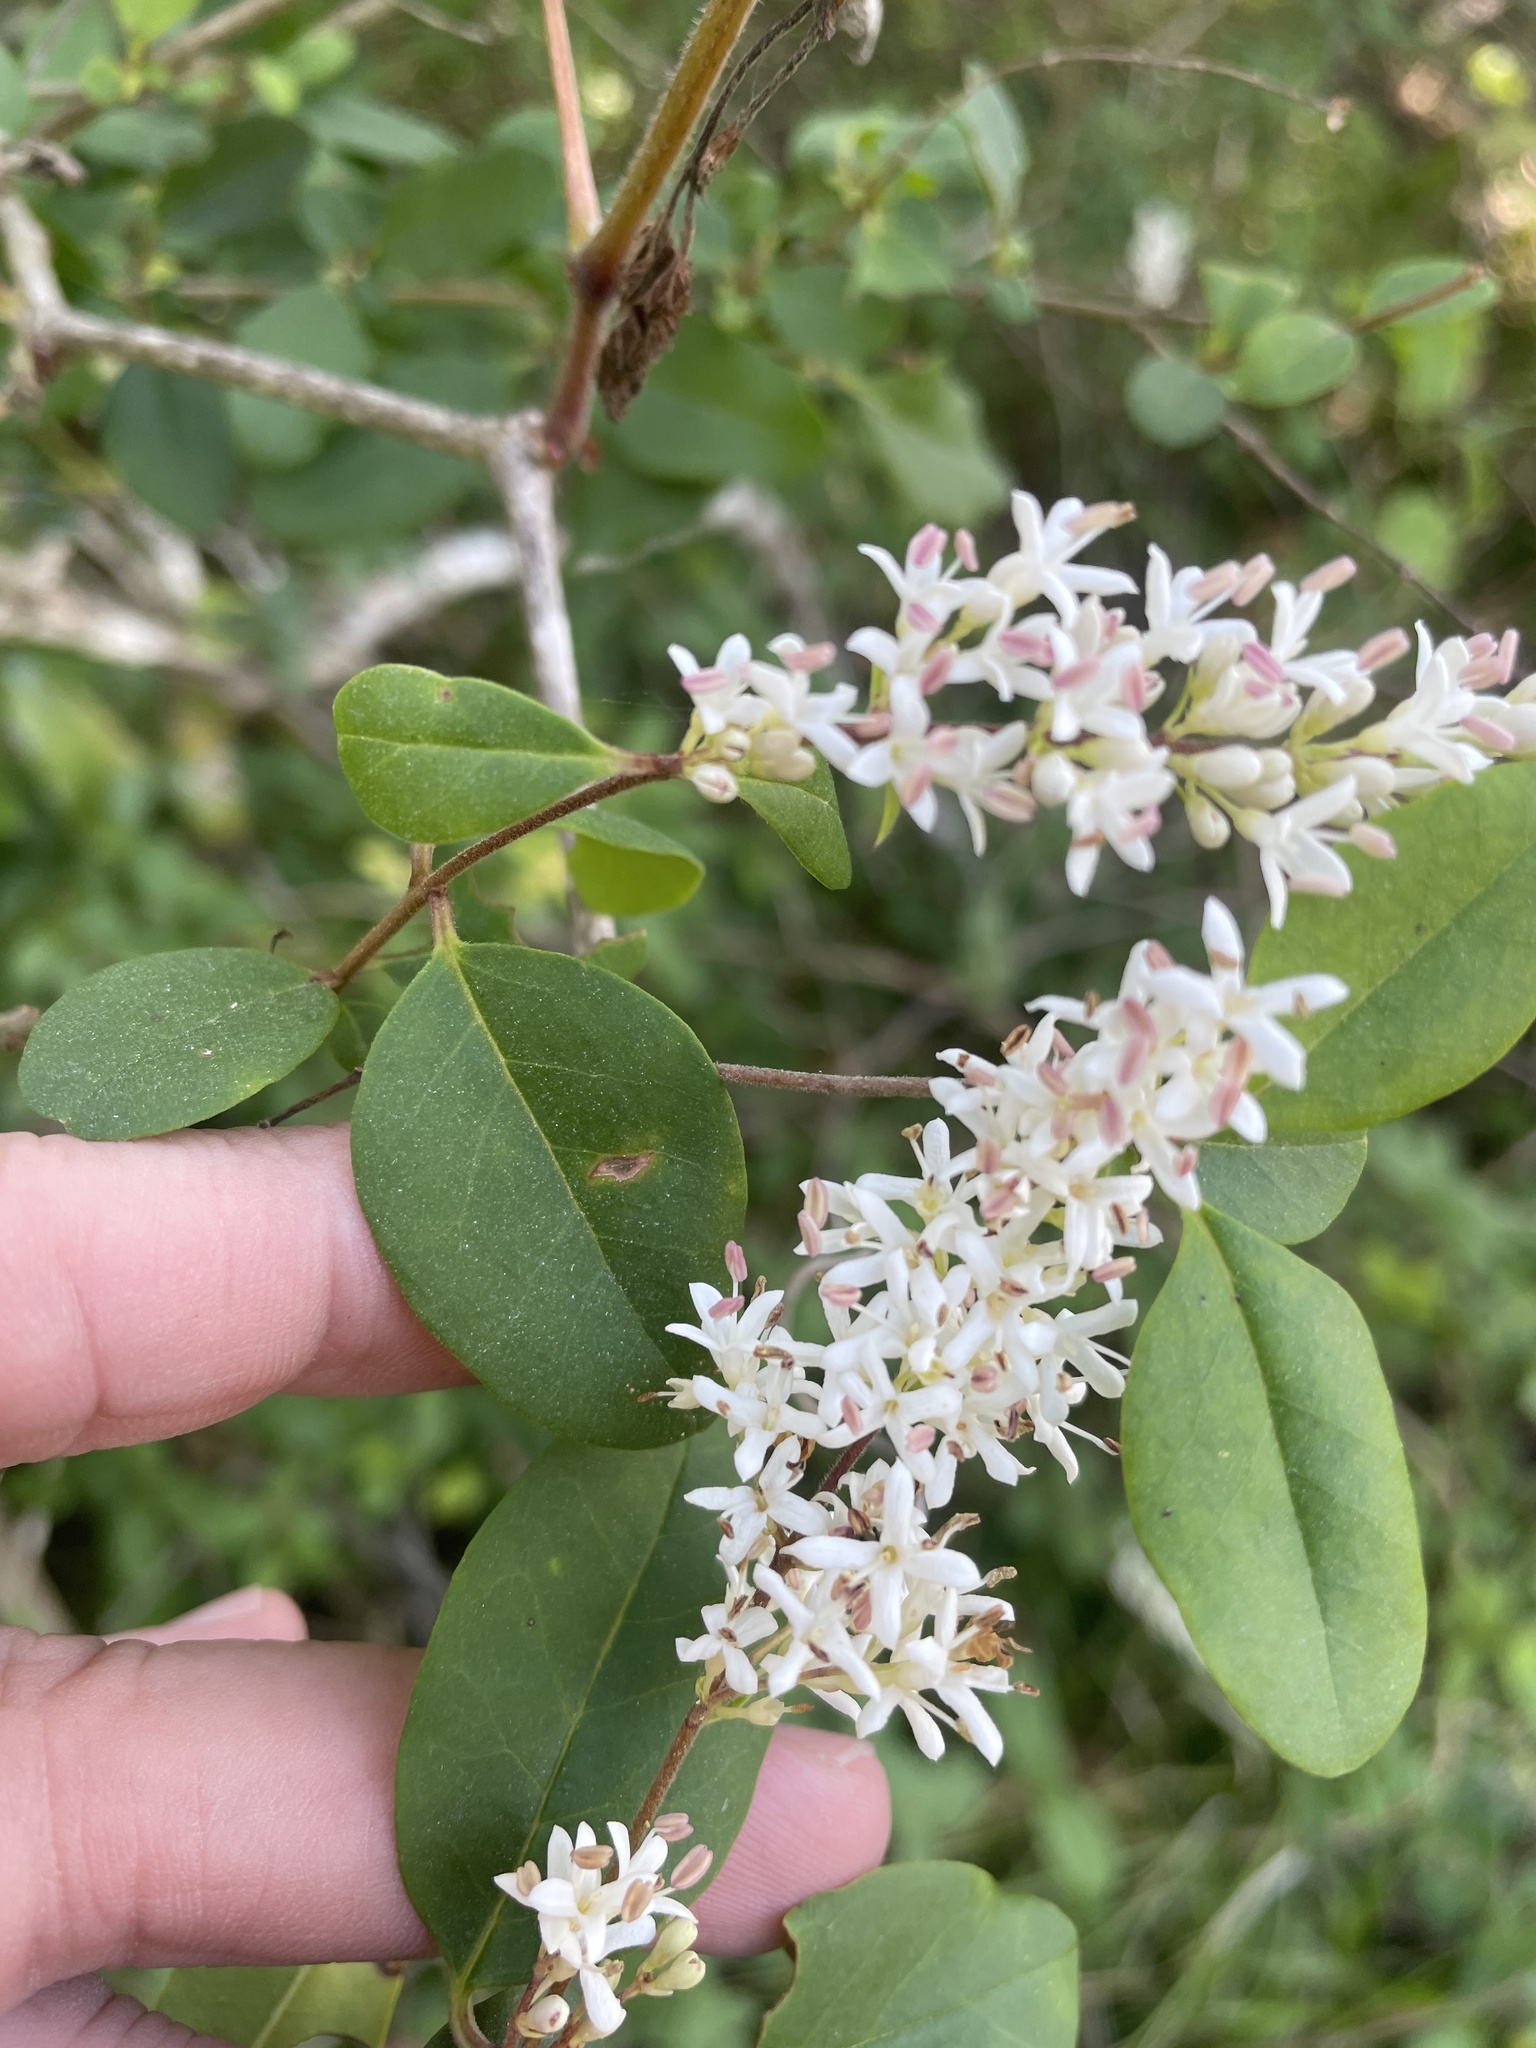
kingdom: Plantae
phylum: Tracheophyta
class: Magnoliopsida
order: Lamiales
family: Oleaceae
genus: Ligustrum
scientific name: Ligustrum sinense
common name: Chinese privet
